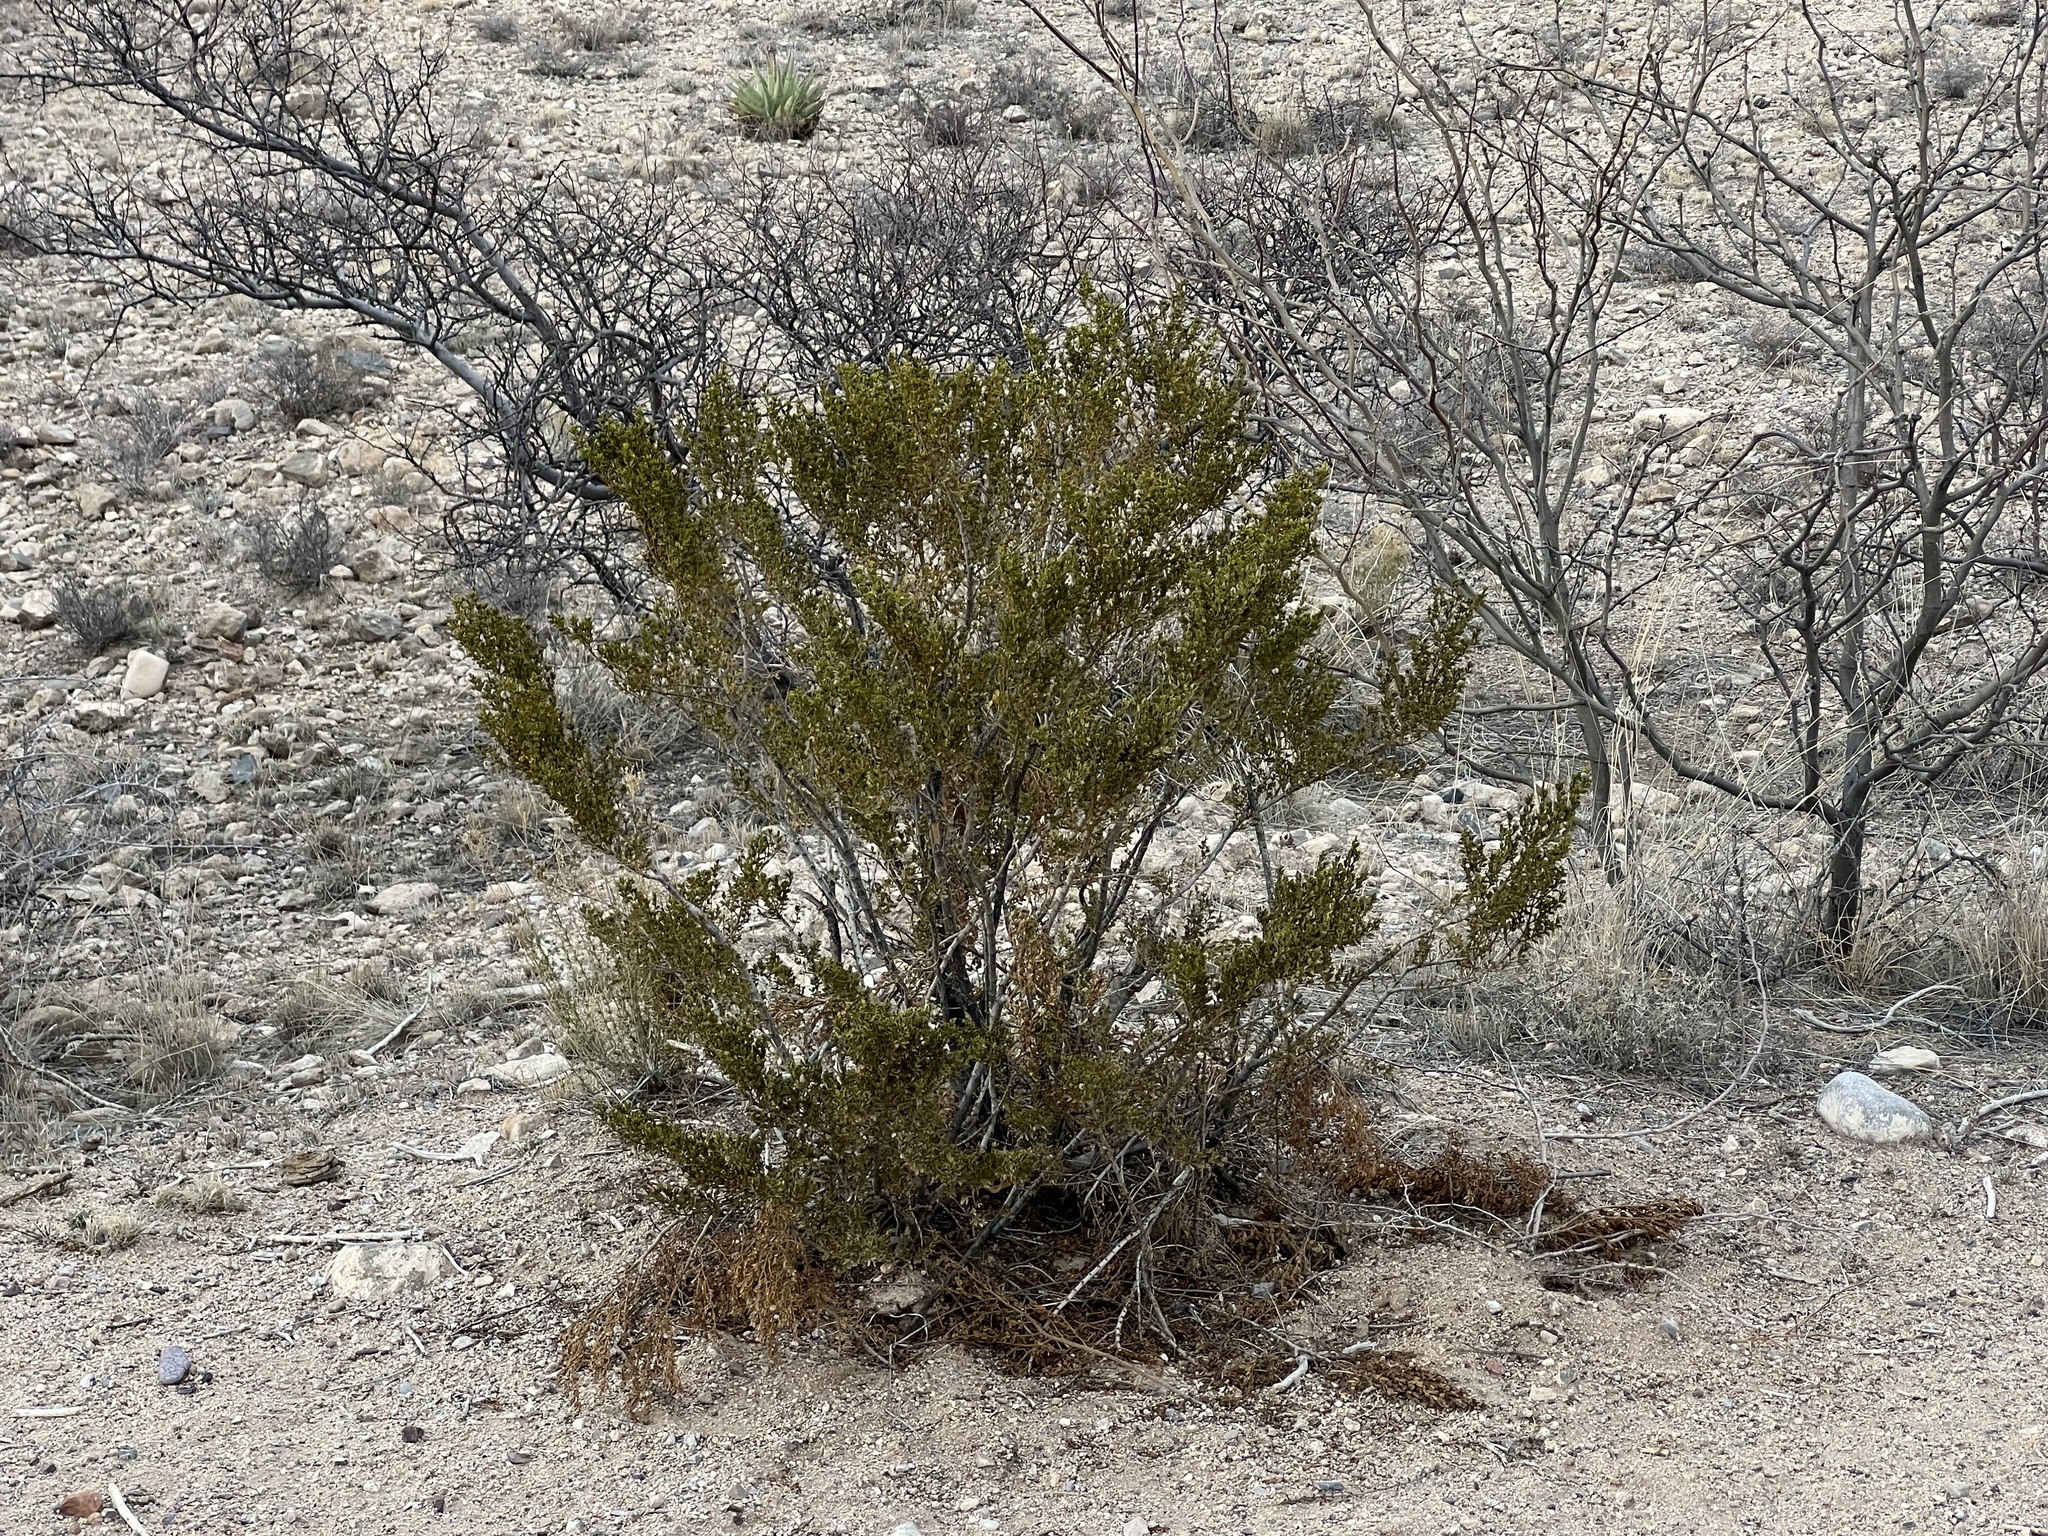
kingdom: Plantae
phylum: Tracheophyta
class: Magnoliopsida
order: Zygophyllales
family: Zygophyllaceae
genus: Larrea
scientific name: Larrea tridentata
